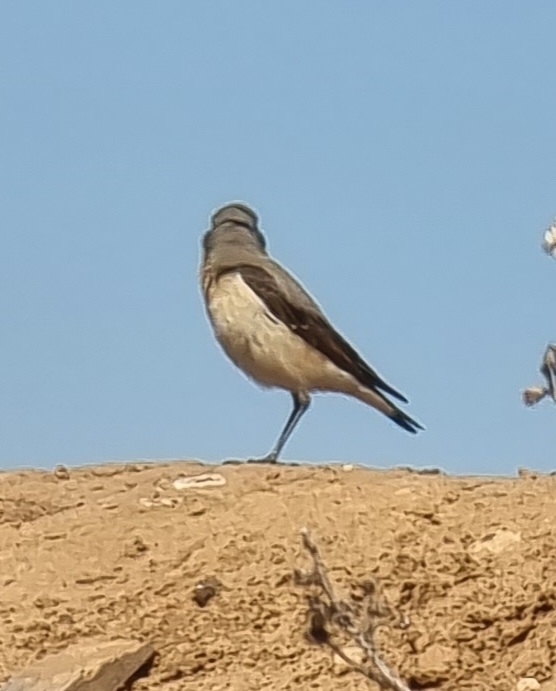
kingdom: Animalia
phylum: Chordata
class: Aves
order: Passeriformes
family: Muscicapidae
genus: Oenanthe
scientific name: Oenanthe oenanthe
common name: Northern wheatear
